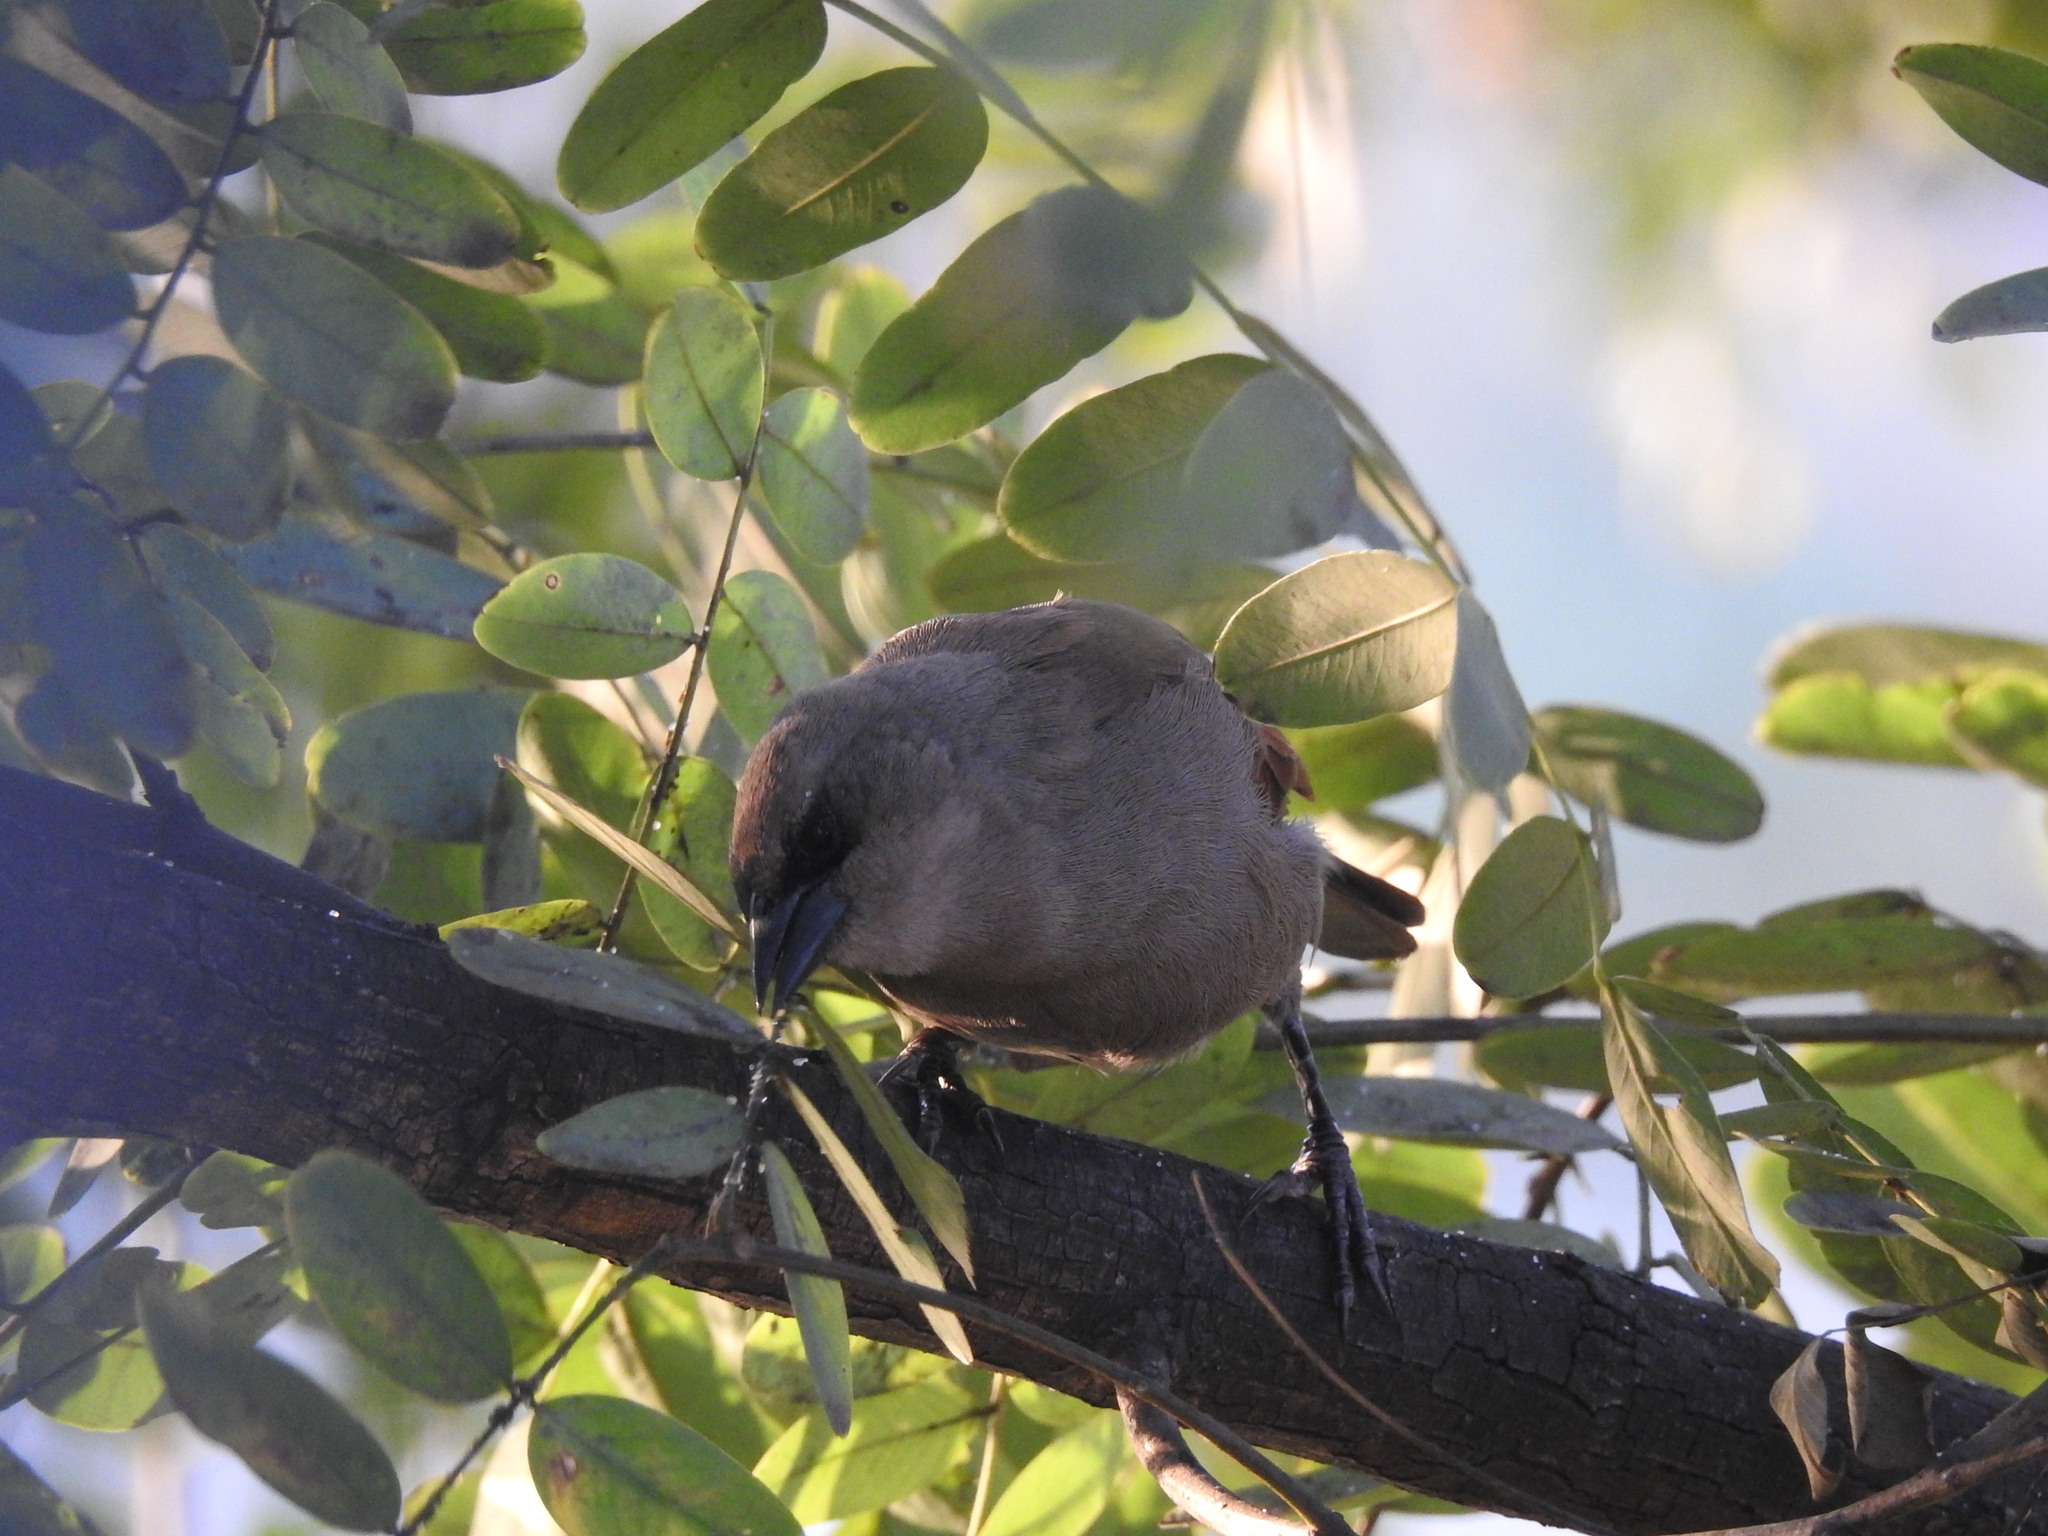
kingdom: Animalia
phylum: Chordata
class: Aves
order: Passeriformes
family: Icteridae
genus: Agelaioides
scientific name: Agelaioides badius
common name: Baywing
